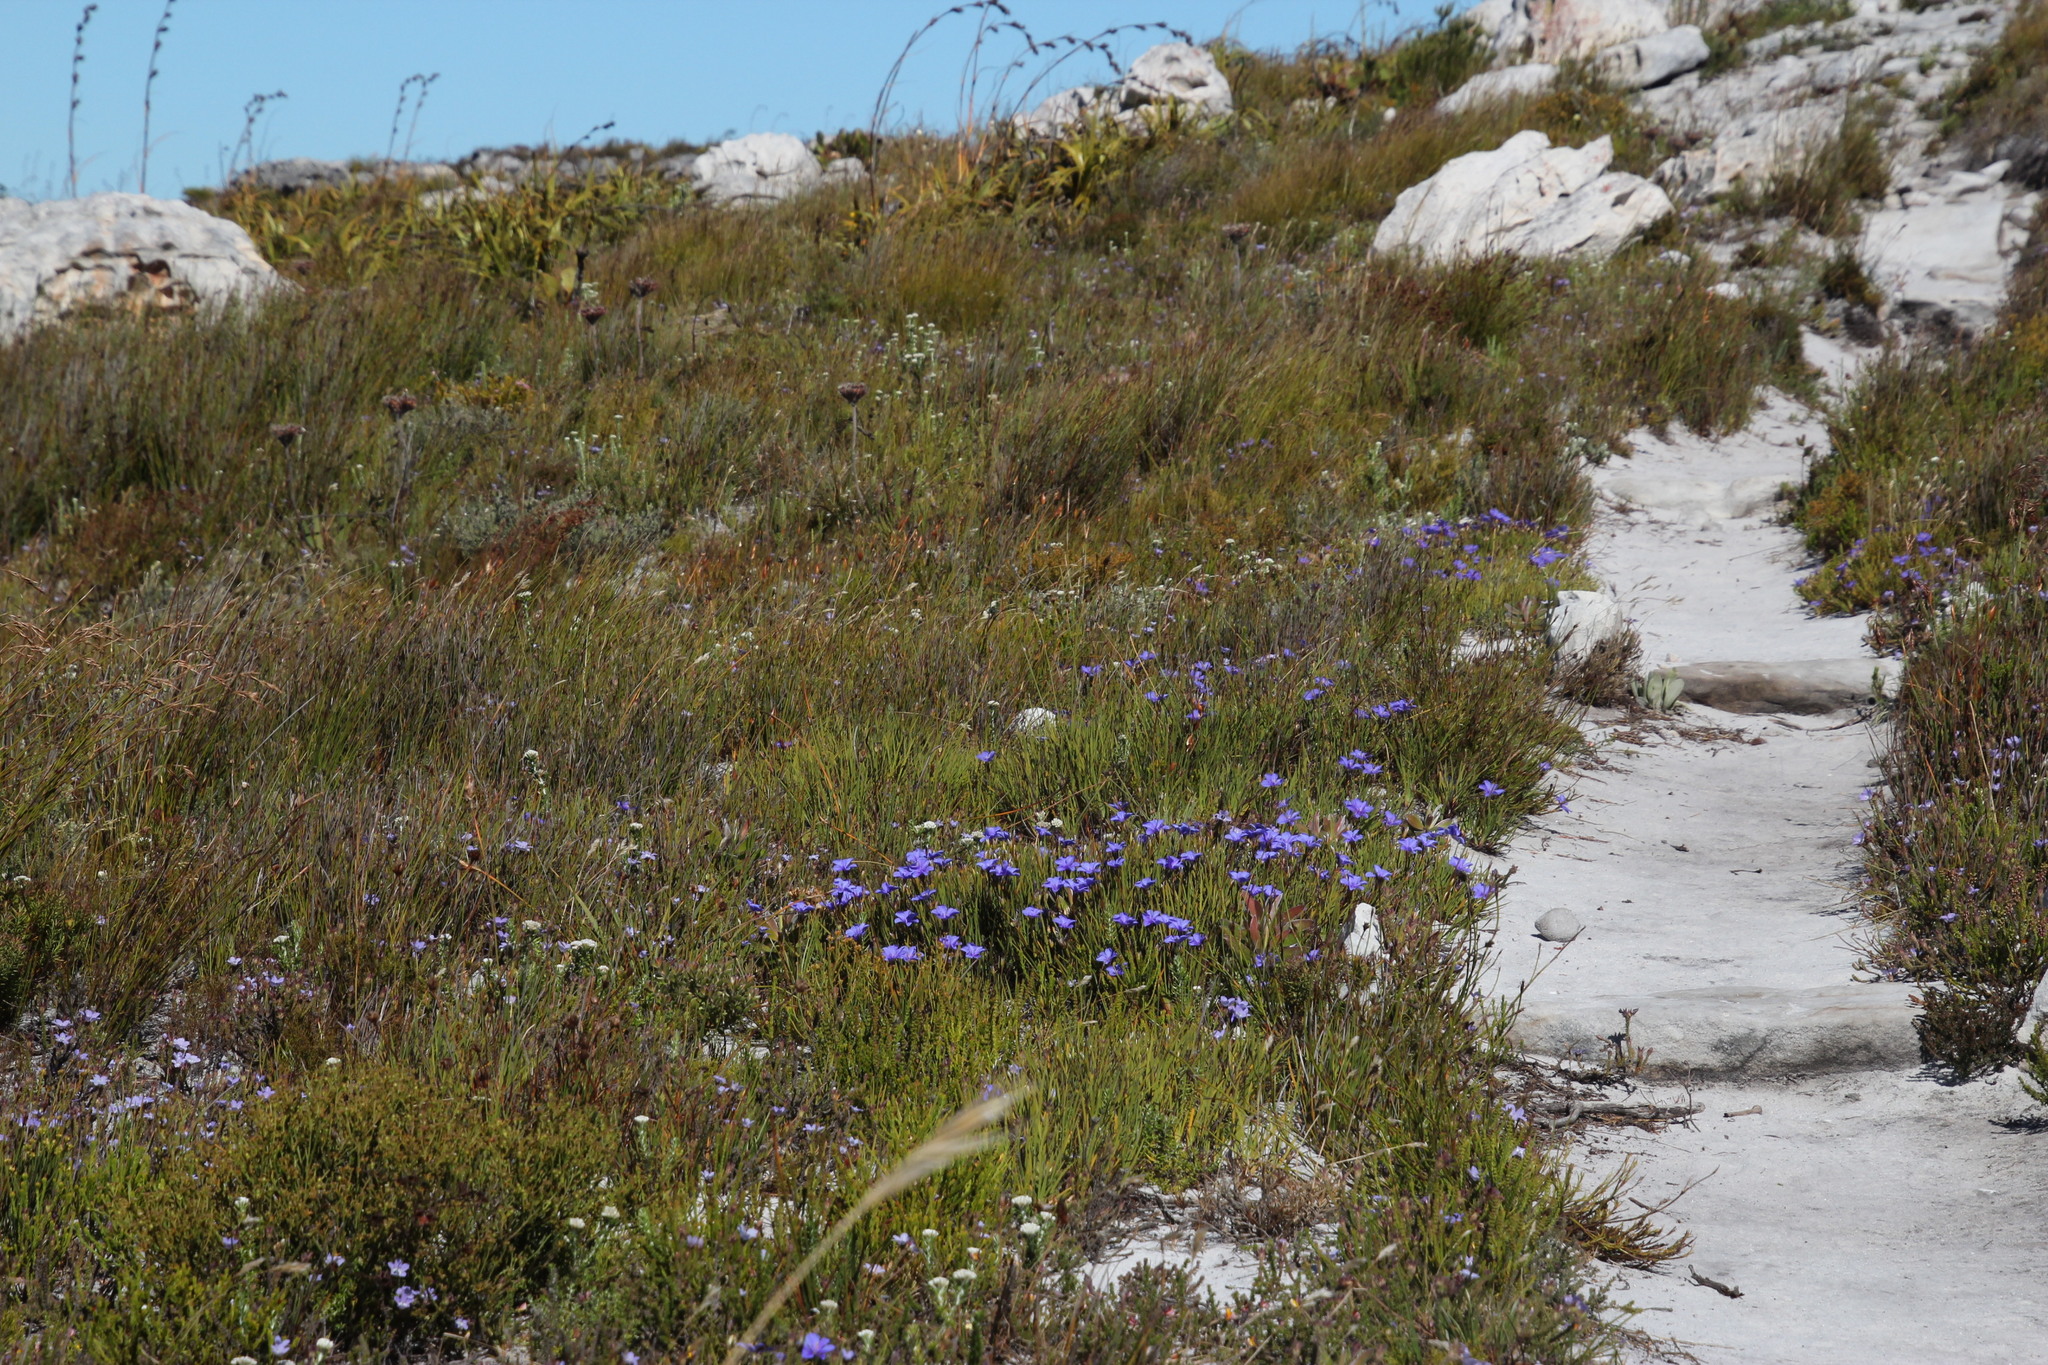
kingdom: Plantae
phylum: Tracheophyta
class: Liliopsida
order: Asparagales
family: Iridaceae
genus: Aristea
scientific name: Aristea africana
